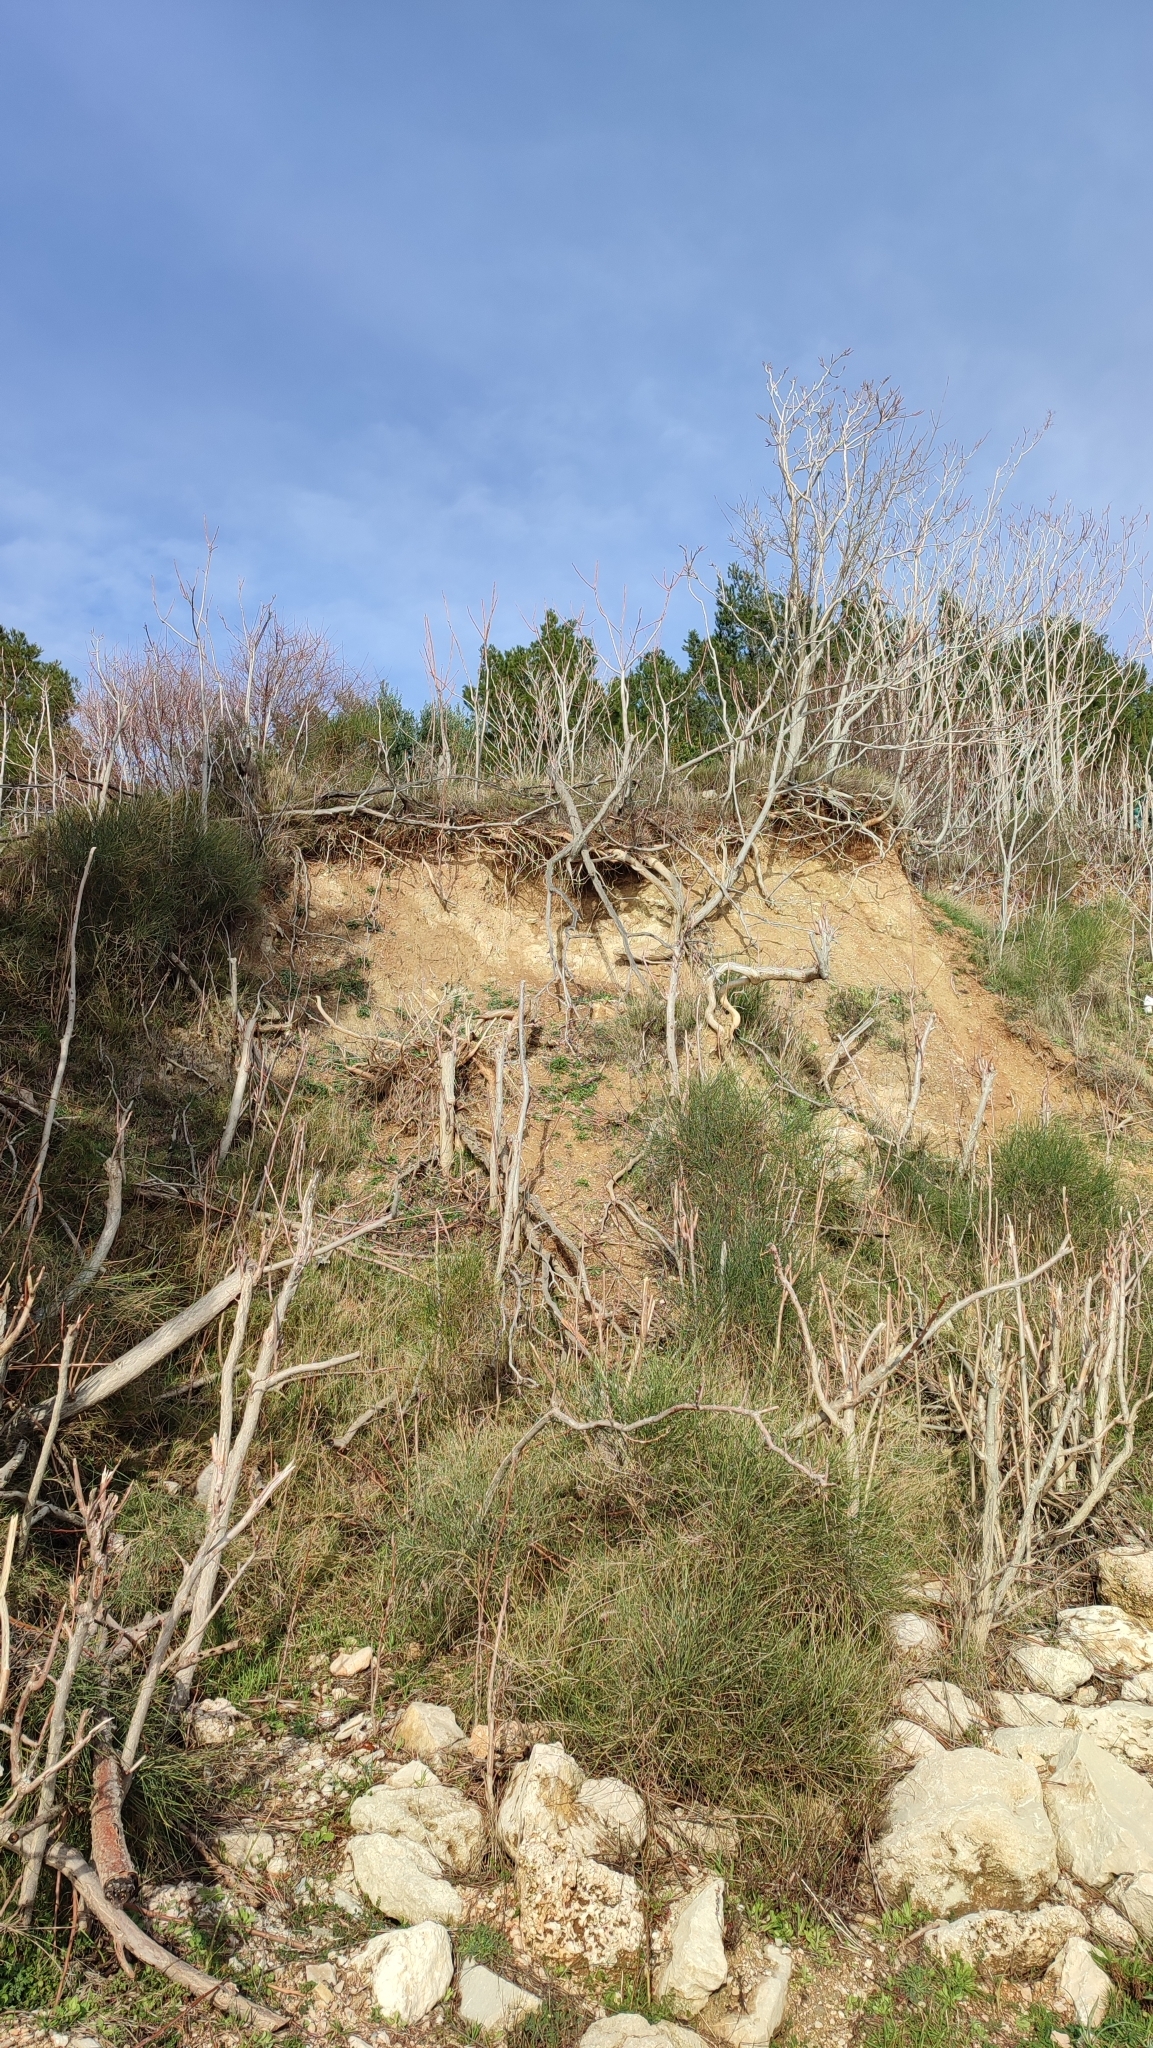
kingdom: Plantae
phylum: Tracheophyta
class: Magnoliopsida
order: Sapindales
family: Simaroubaceae
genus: Ailanthus
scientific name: Ailanthus altissima
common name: Tree-of-heaven
